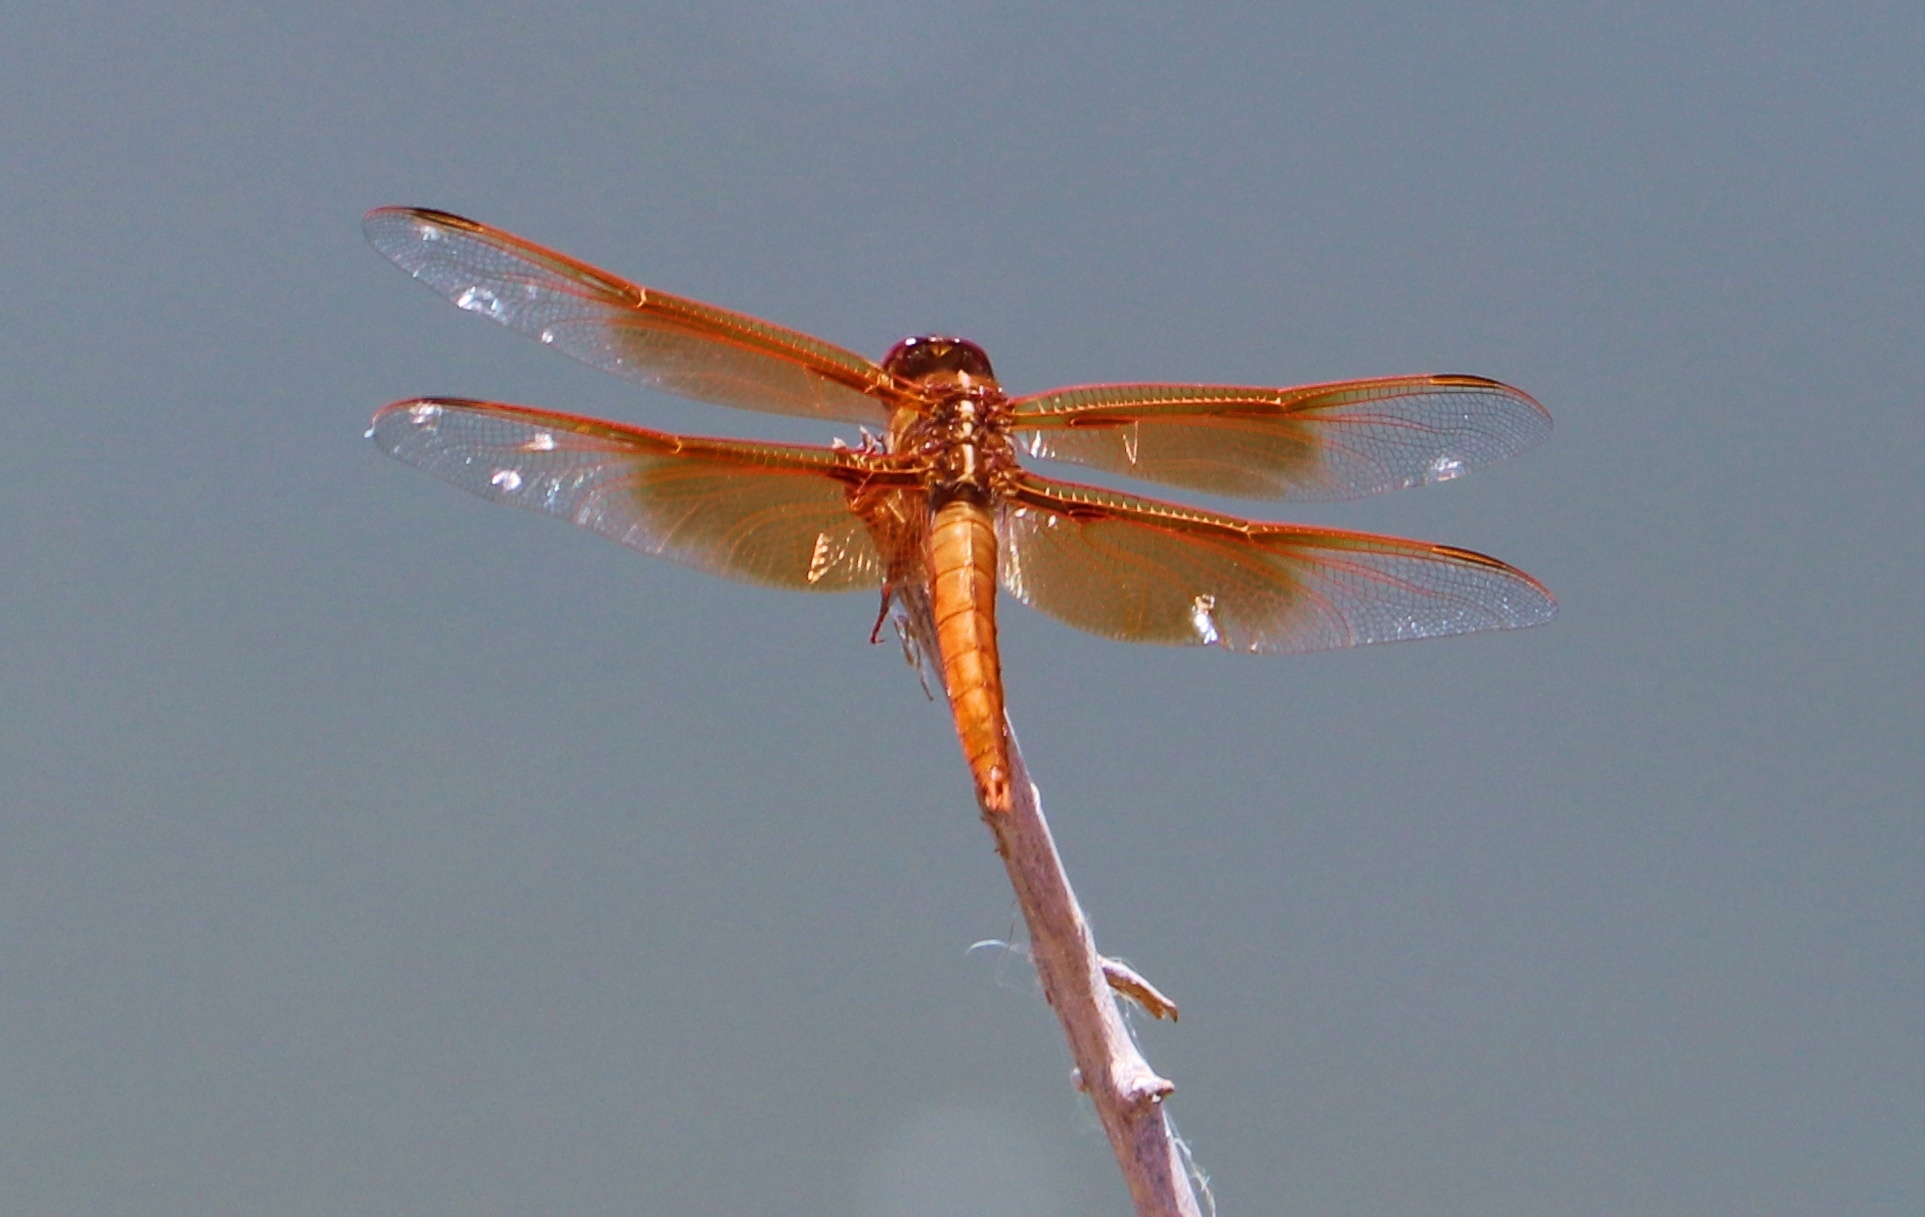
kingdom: Animalia
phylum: Arthropoda
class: Insecta
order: Odonata
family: Libellulidae
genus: Libellula
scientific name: Libellula saturata
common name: Flame skimmer
